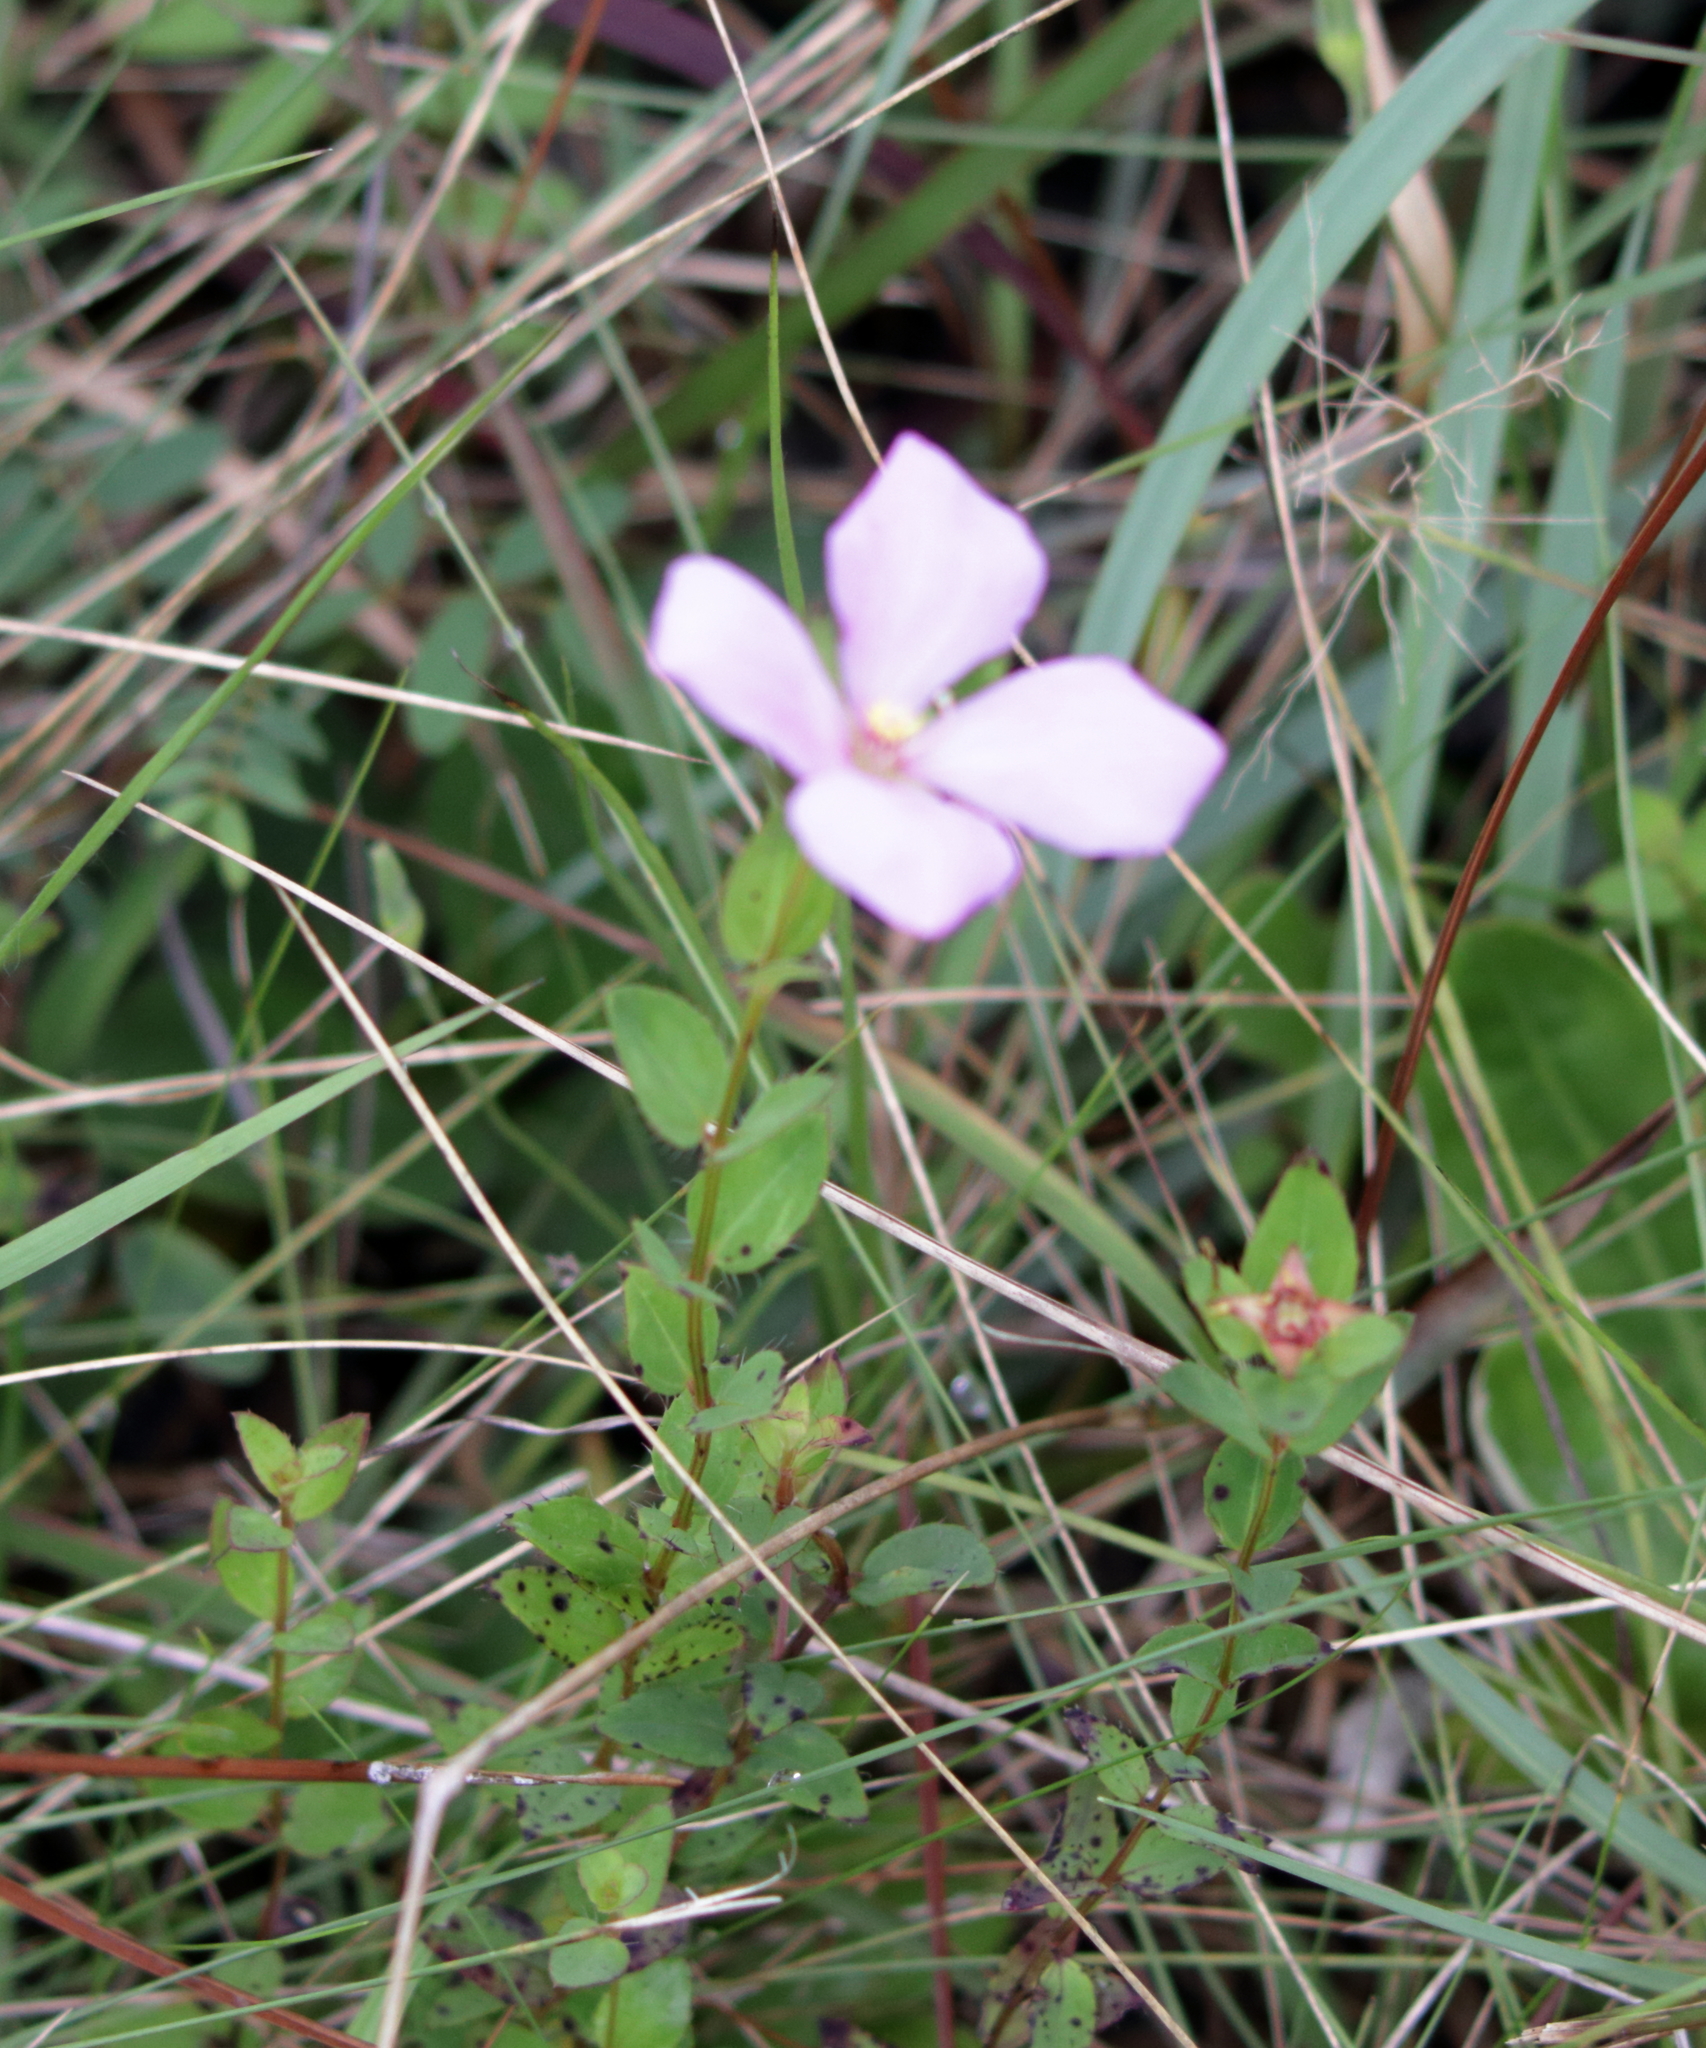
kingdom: Plantae
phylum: Tracheophyta
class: Magnoliopsida
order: Myrtales
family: Melastomataceae
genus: Rhexia
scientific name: Rhexia petiolata
